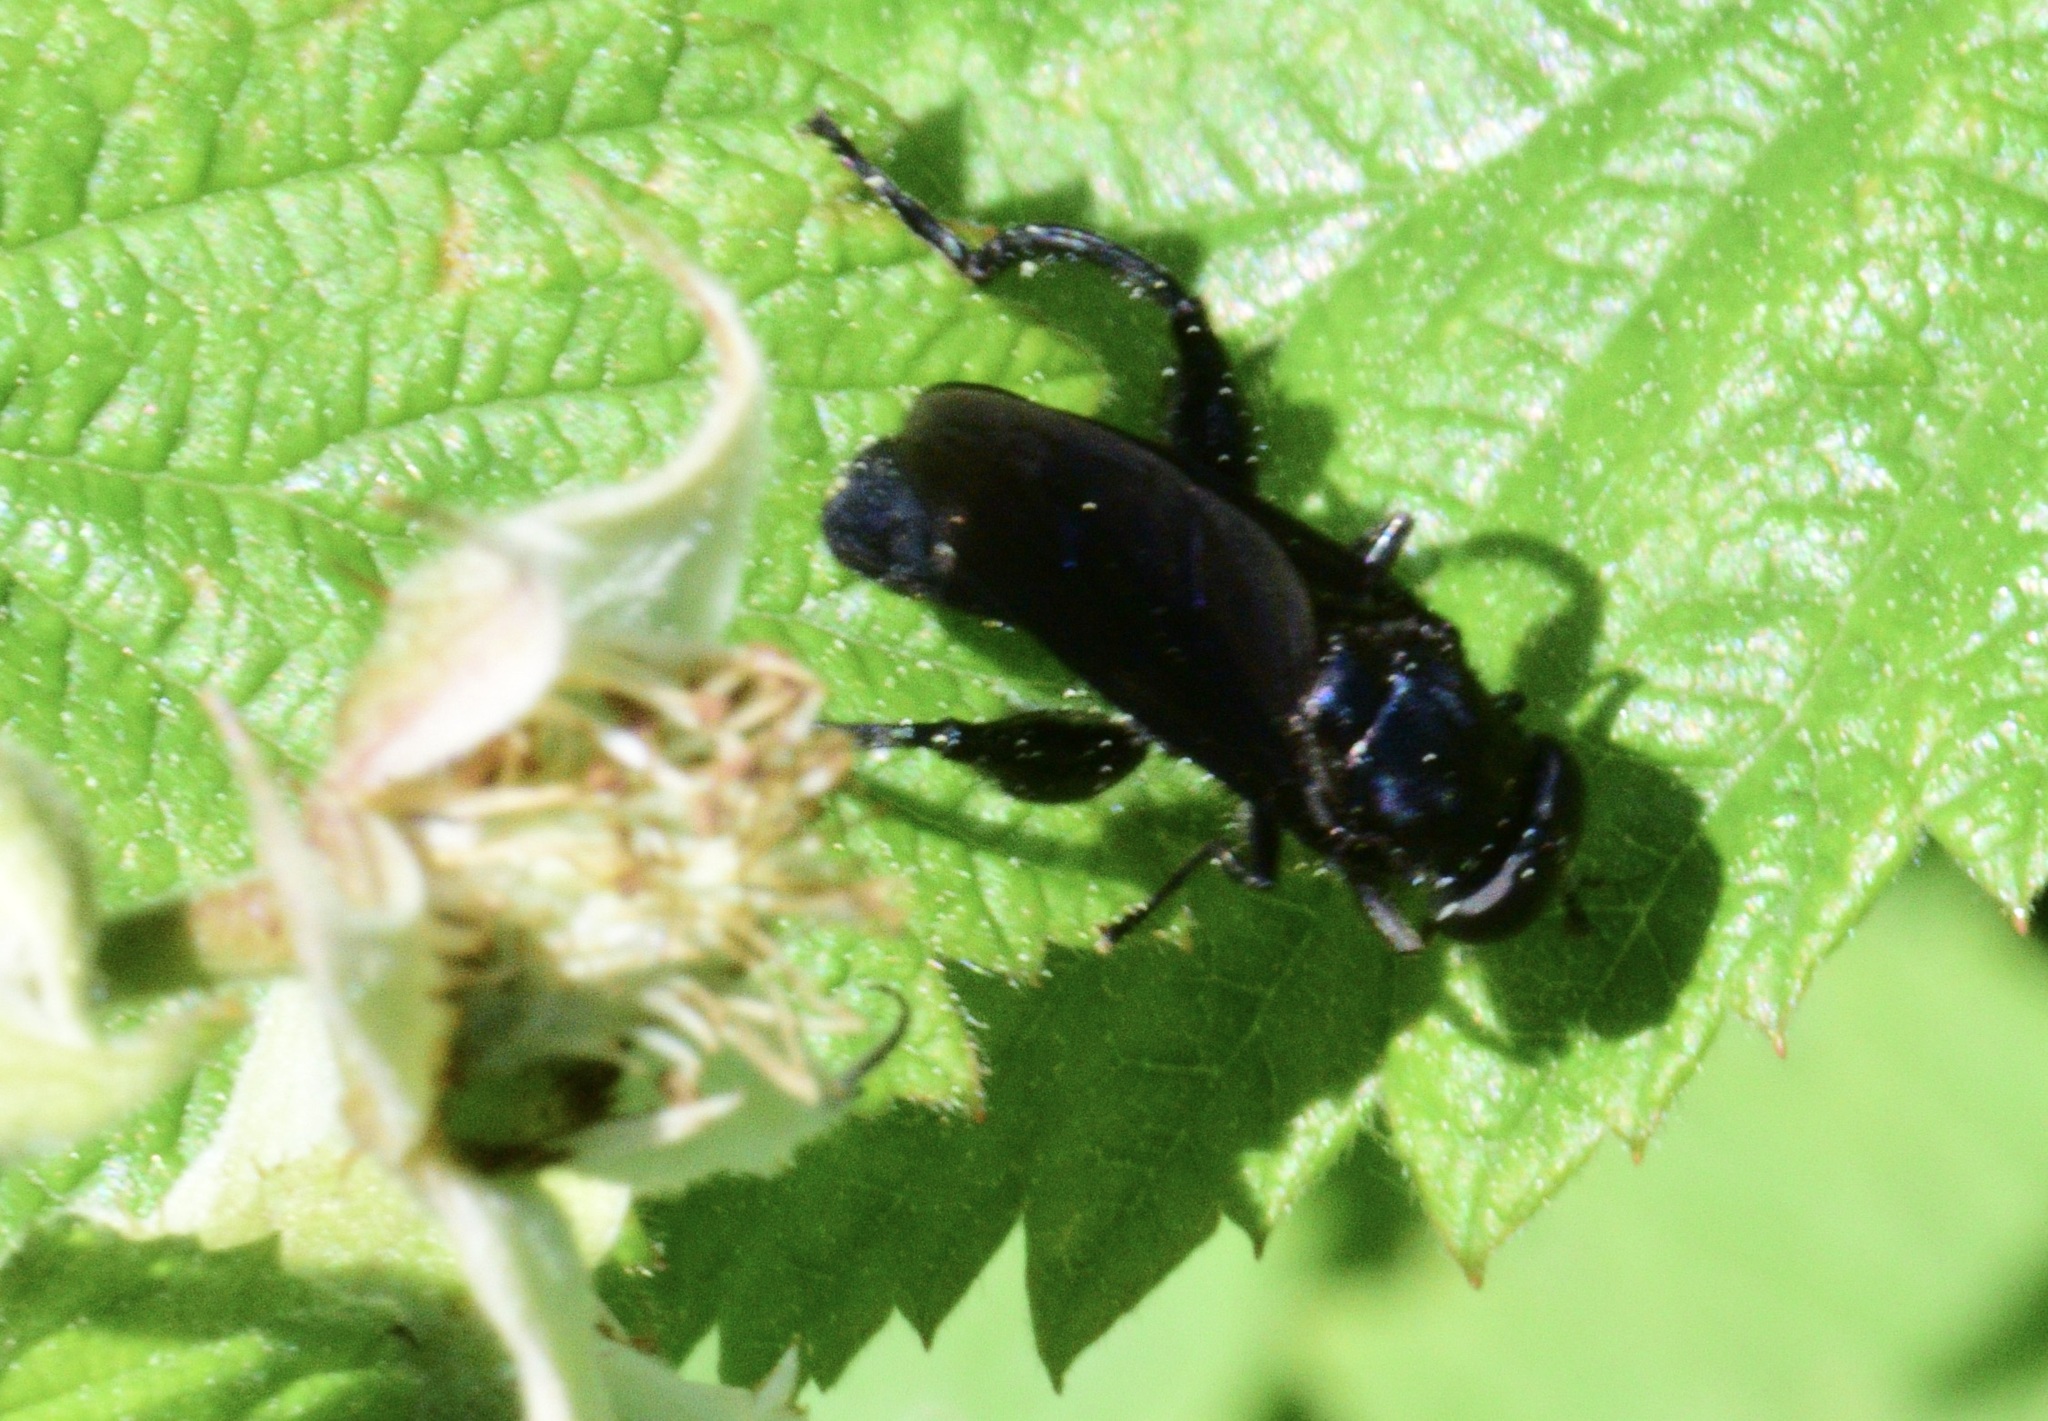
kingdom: Animalia
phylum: Arthropoda
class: Insecta
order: Diptera
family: Syrphidae
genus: Chalcosyrphus
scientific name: Chalcosyrphus chalybeus
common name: Violet leafwalker
